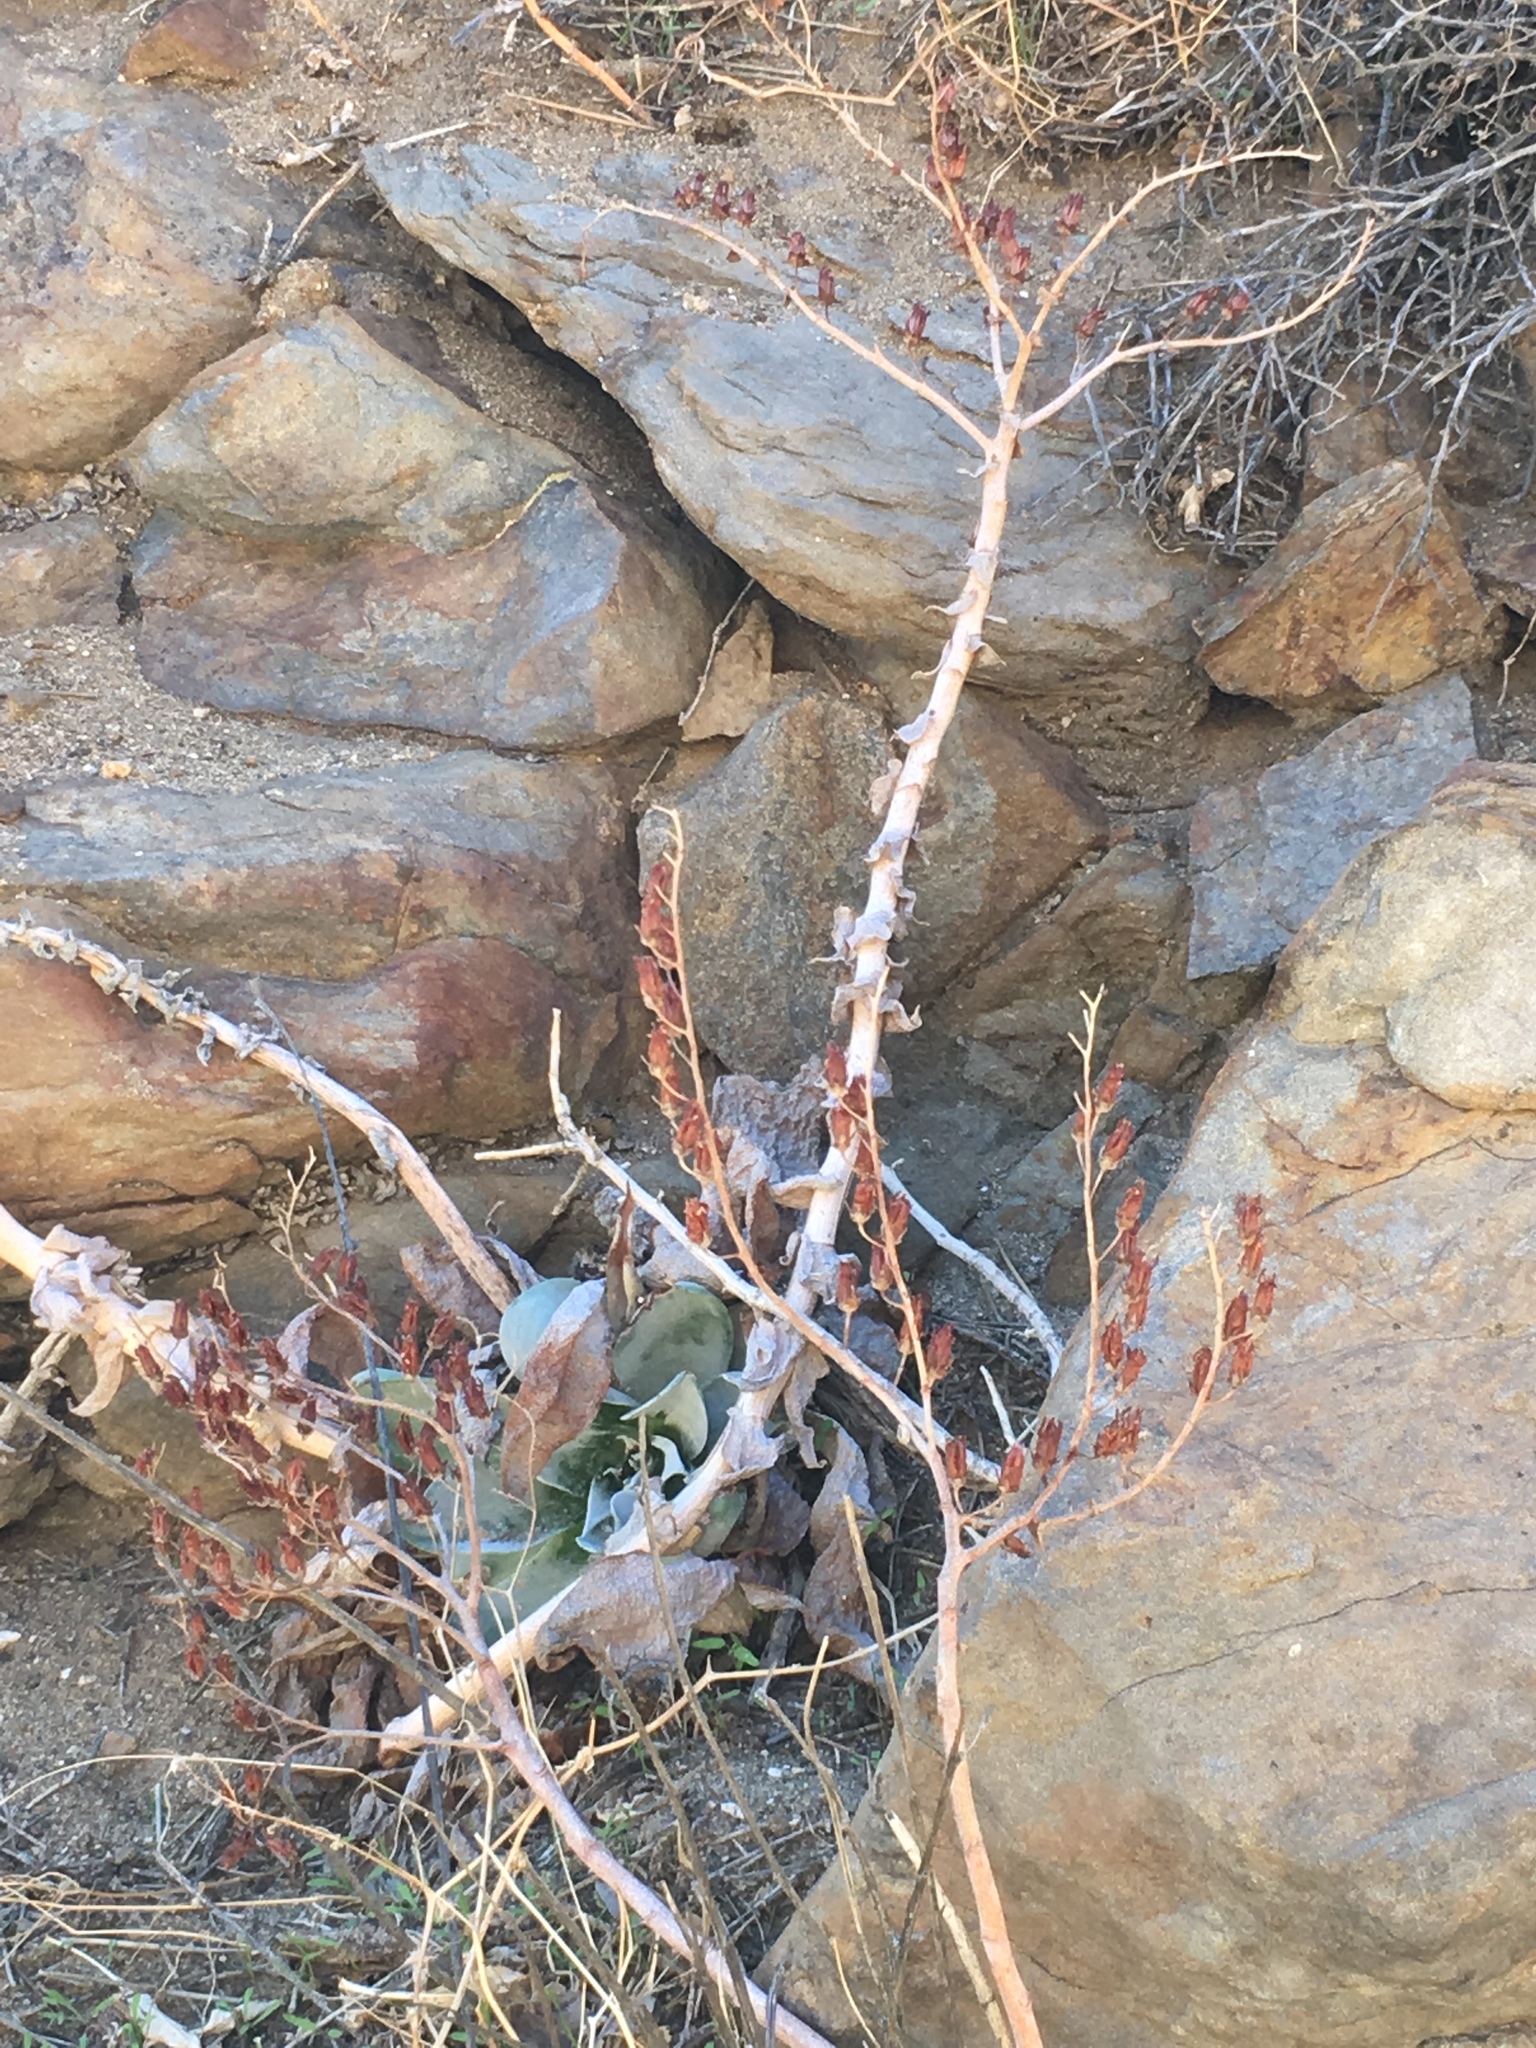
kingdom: Plantae
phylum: Tracheophyta
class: Magnoliopsida
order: Saxifragales
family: Crassulaceae
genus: Dudleya
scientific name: Dudleya arizonica
